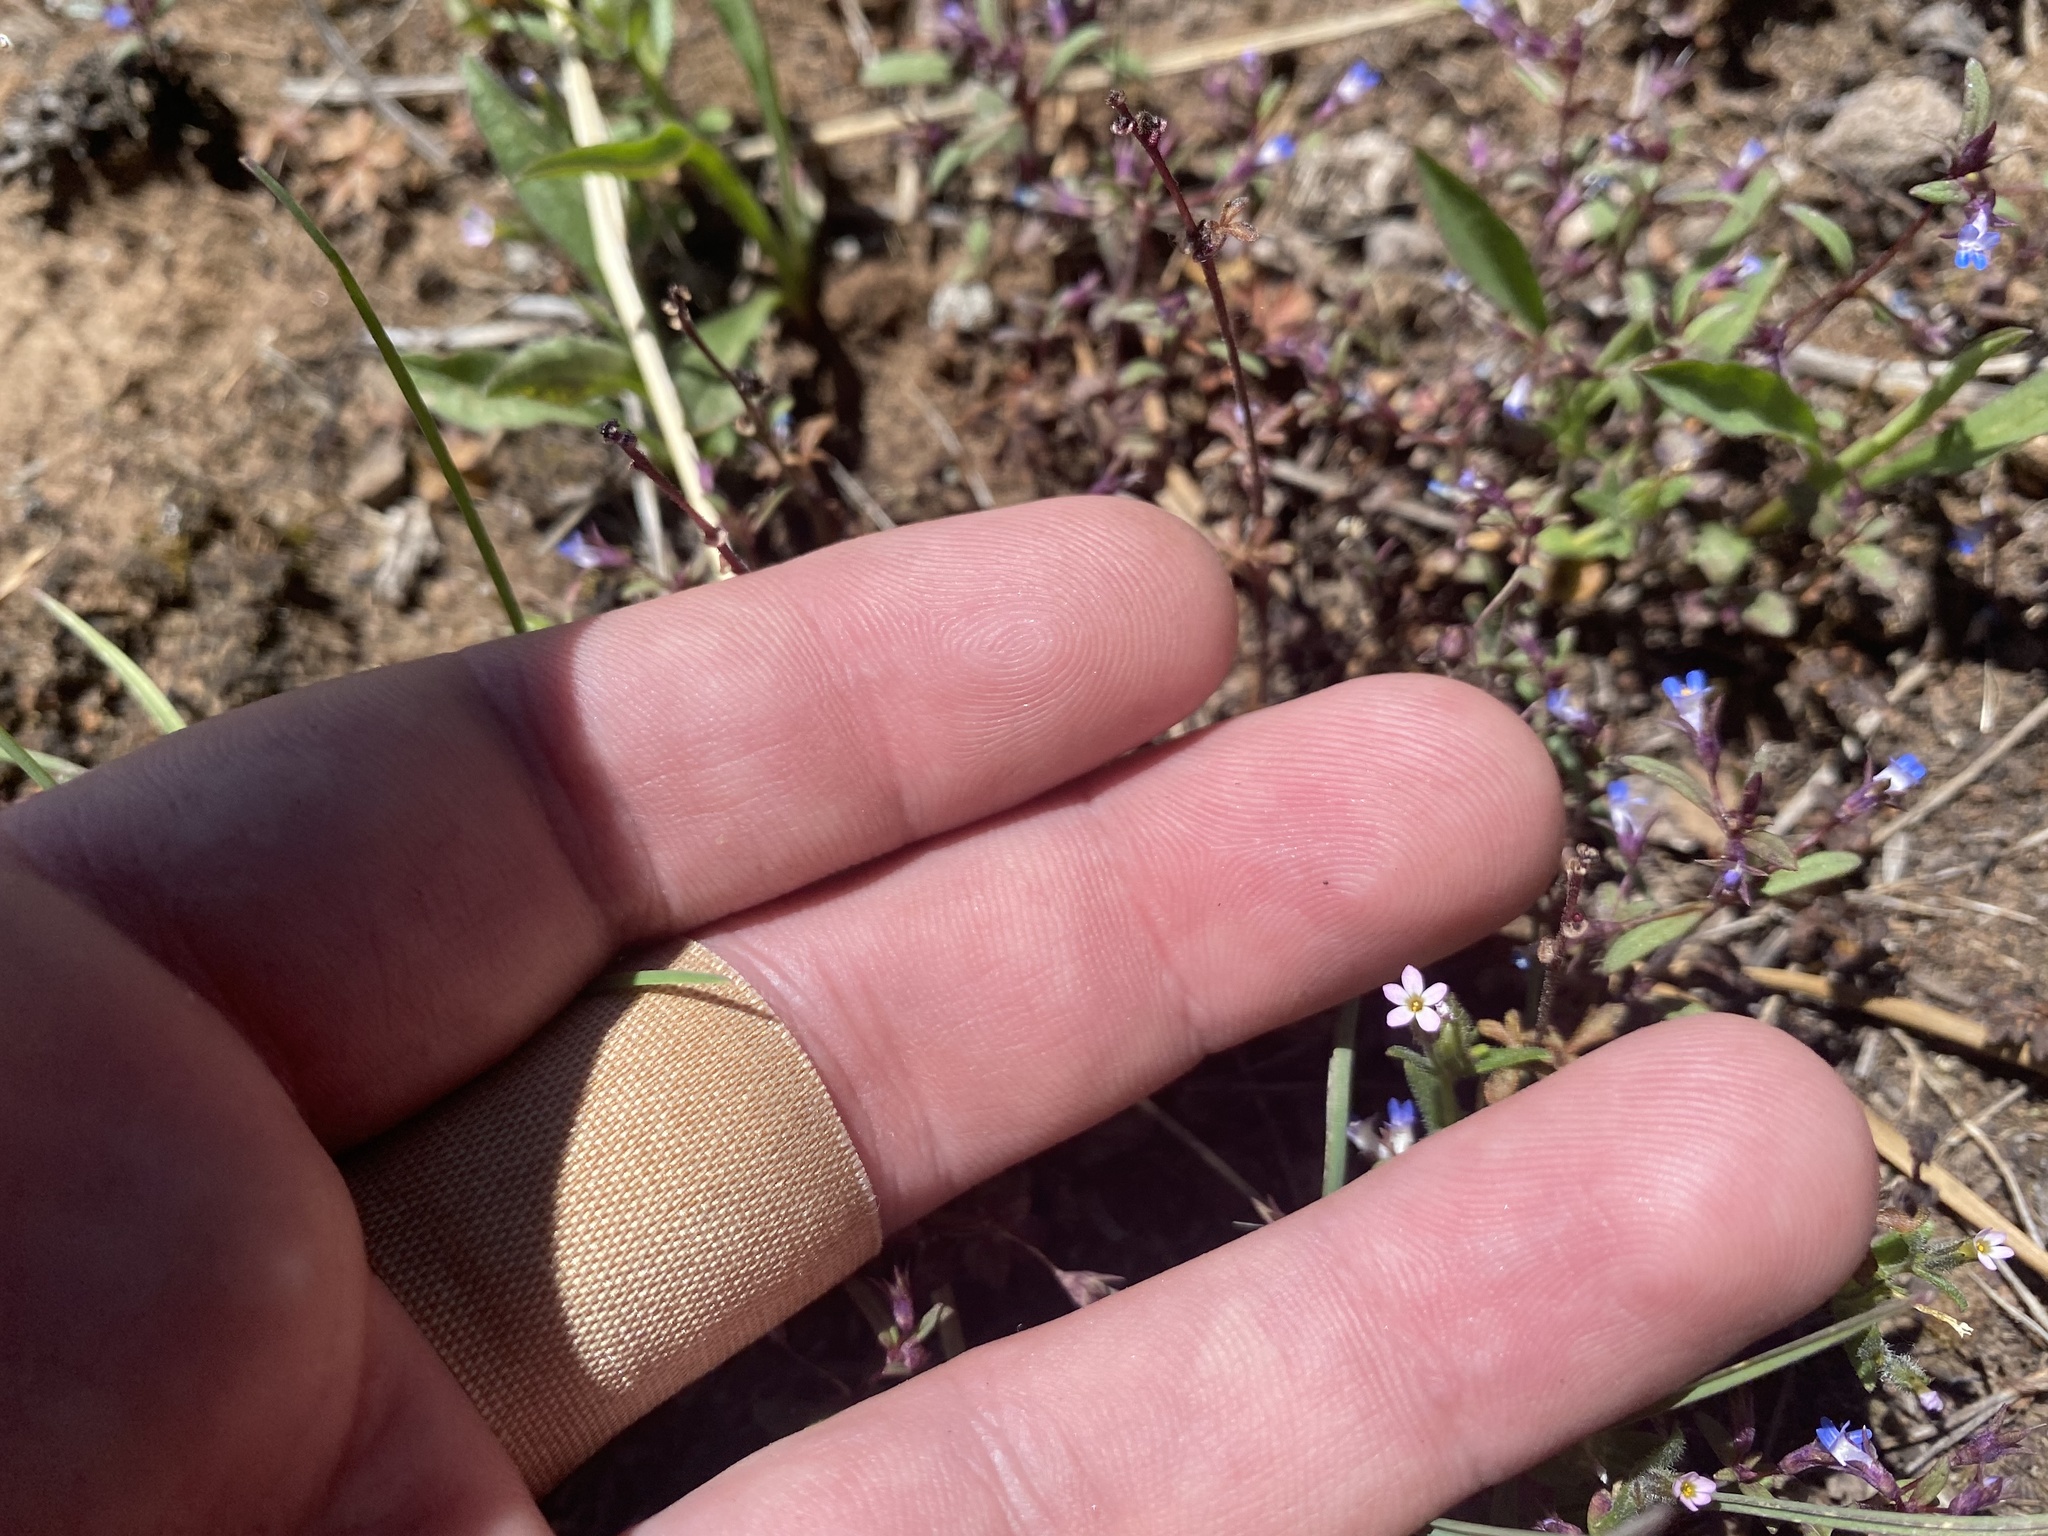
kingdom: Plantae
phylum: Tracheophyta
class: Magnoliopsida
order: Ericales
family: Polemoniaceae
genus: Phlox
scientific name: Phlox gracilis
